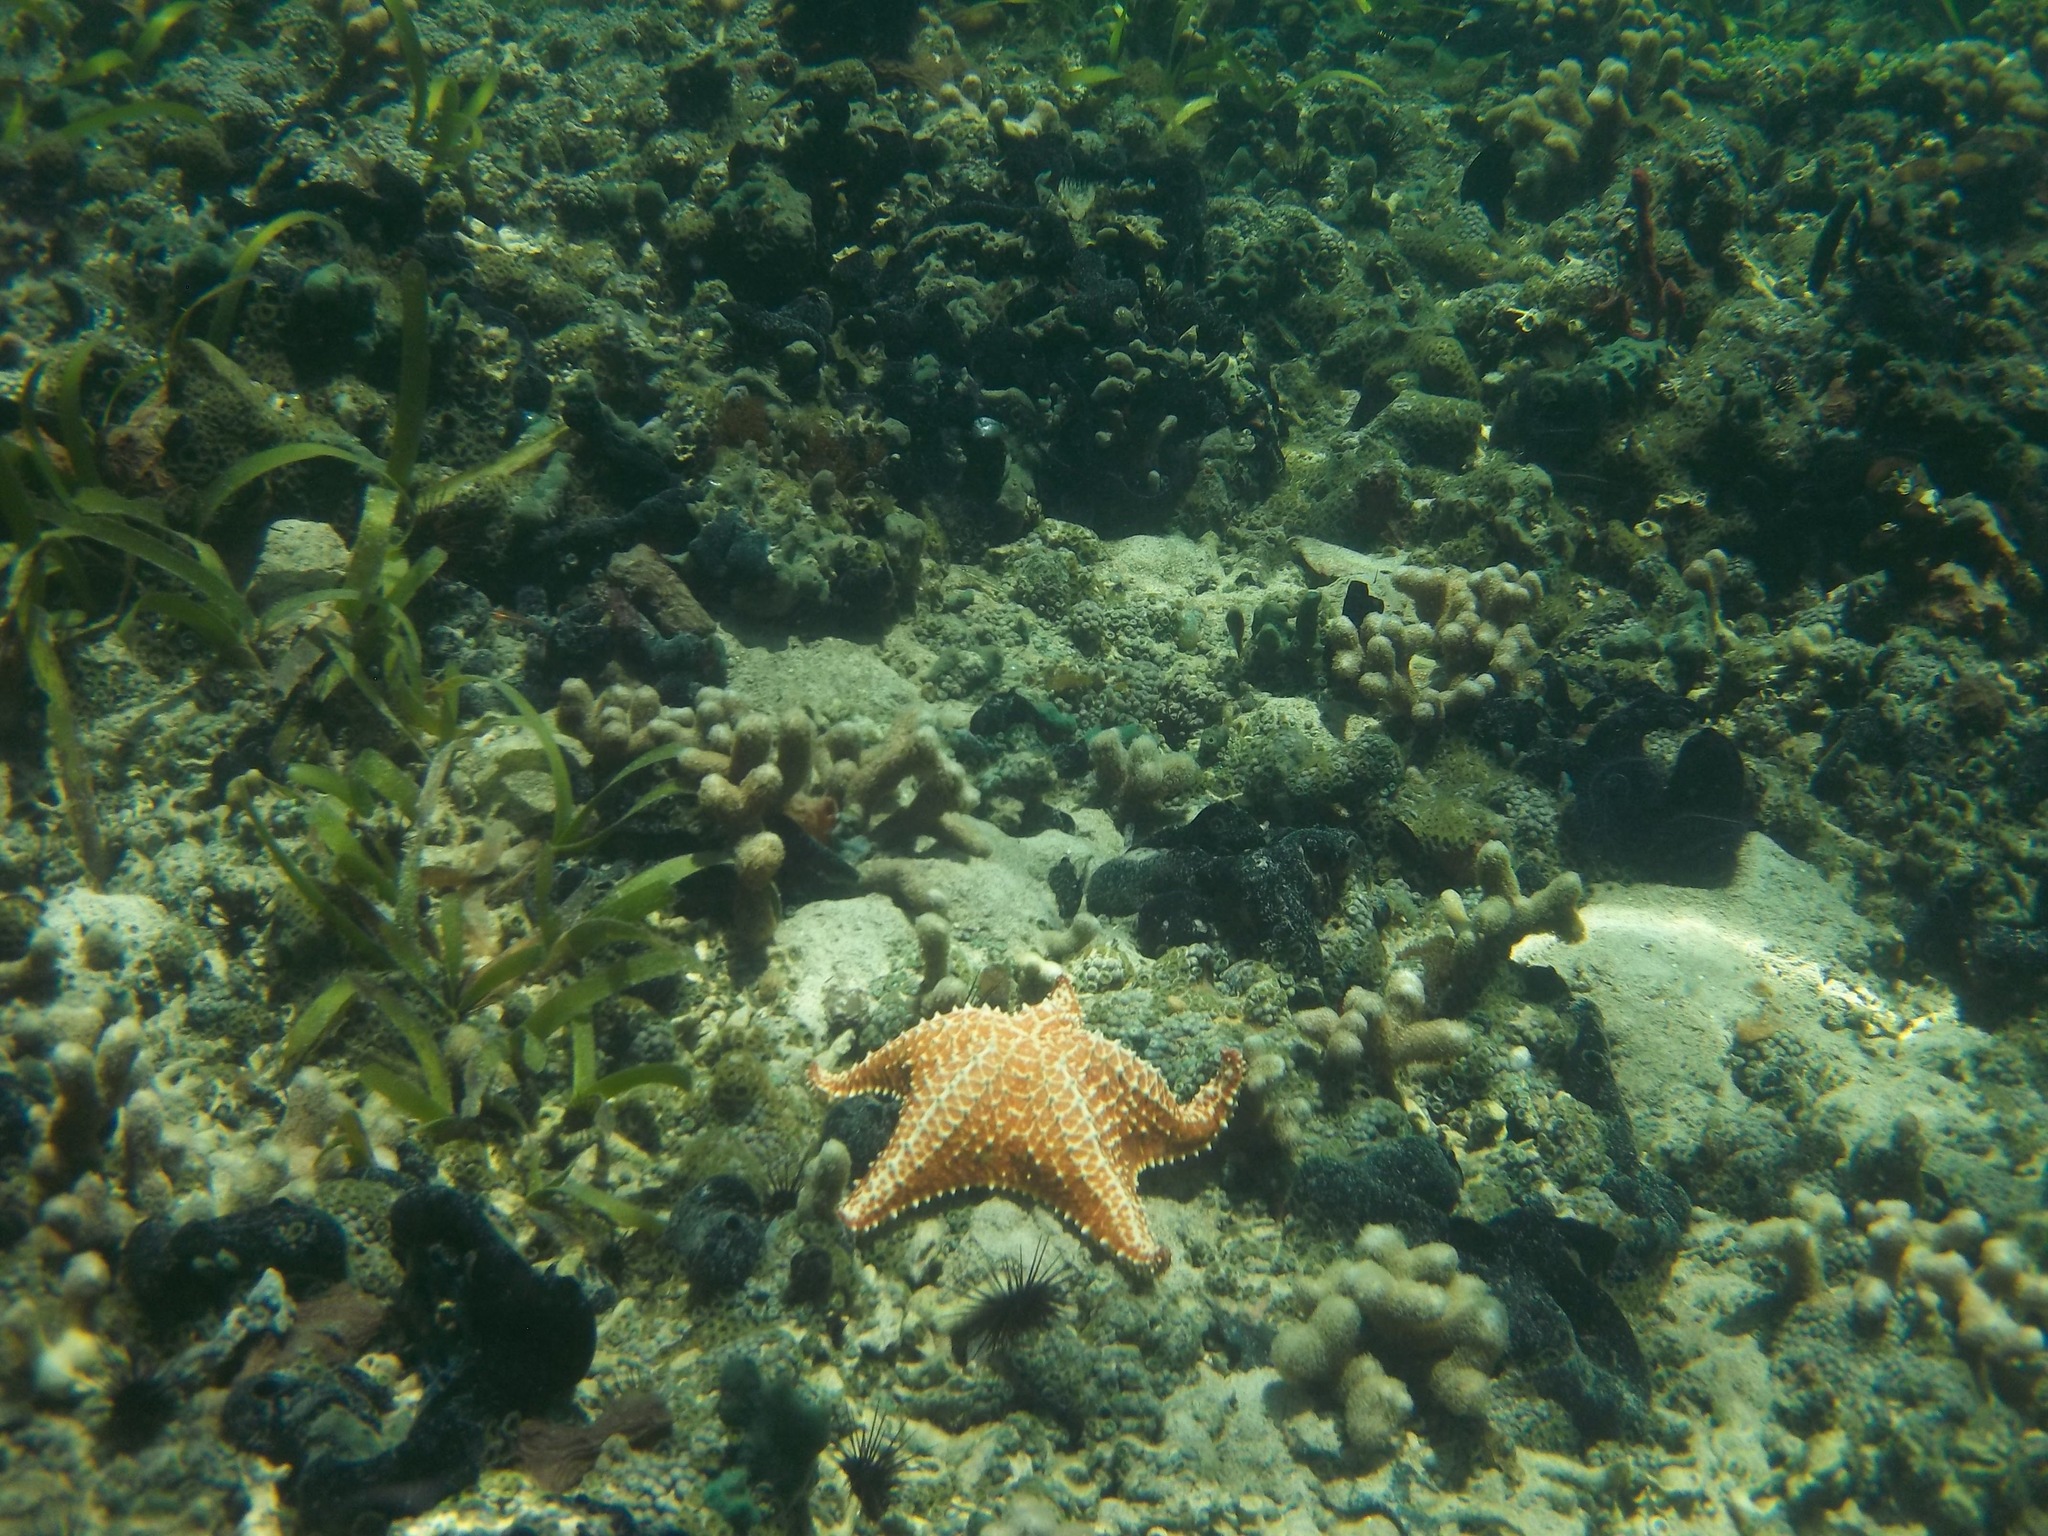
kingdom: Animalia
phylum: Echinodermata
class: Asteroidea
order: Valvatida
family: Oreasteridae
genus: Oreaster
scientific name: Oreaster reticulatus
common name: Cushion sea star
